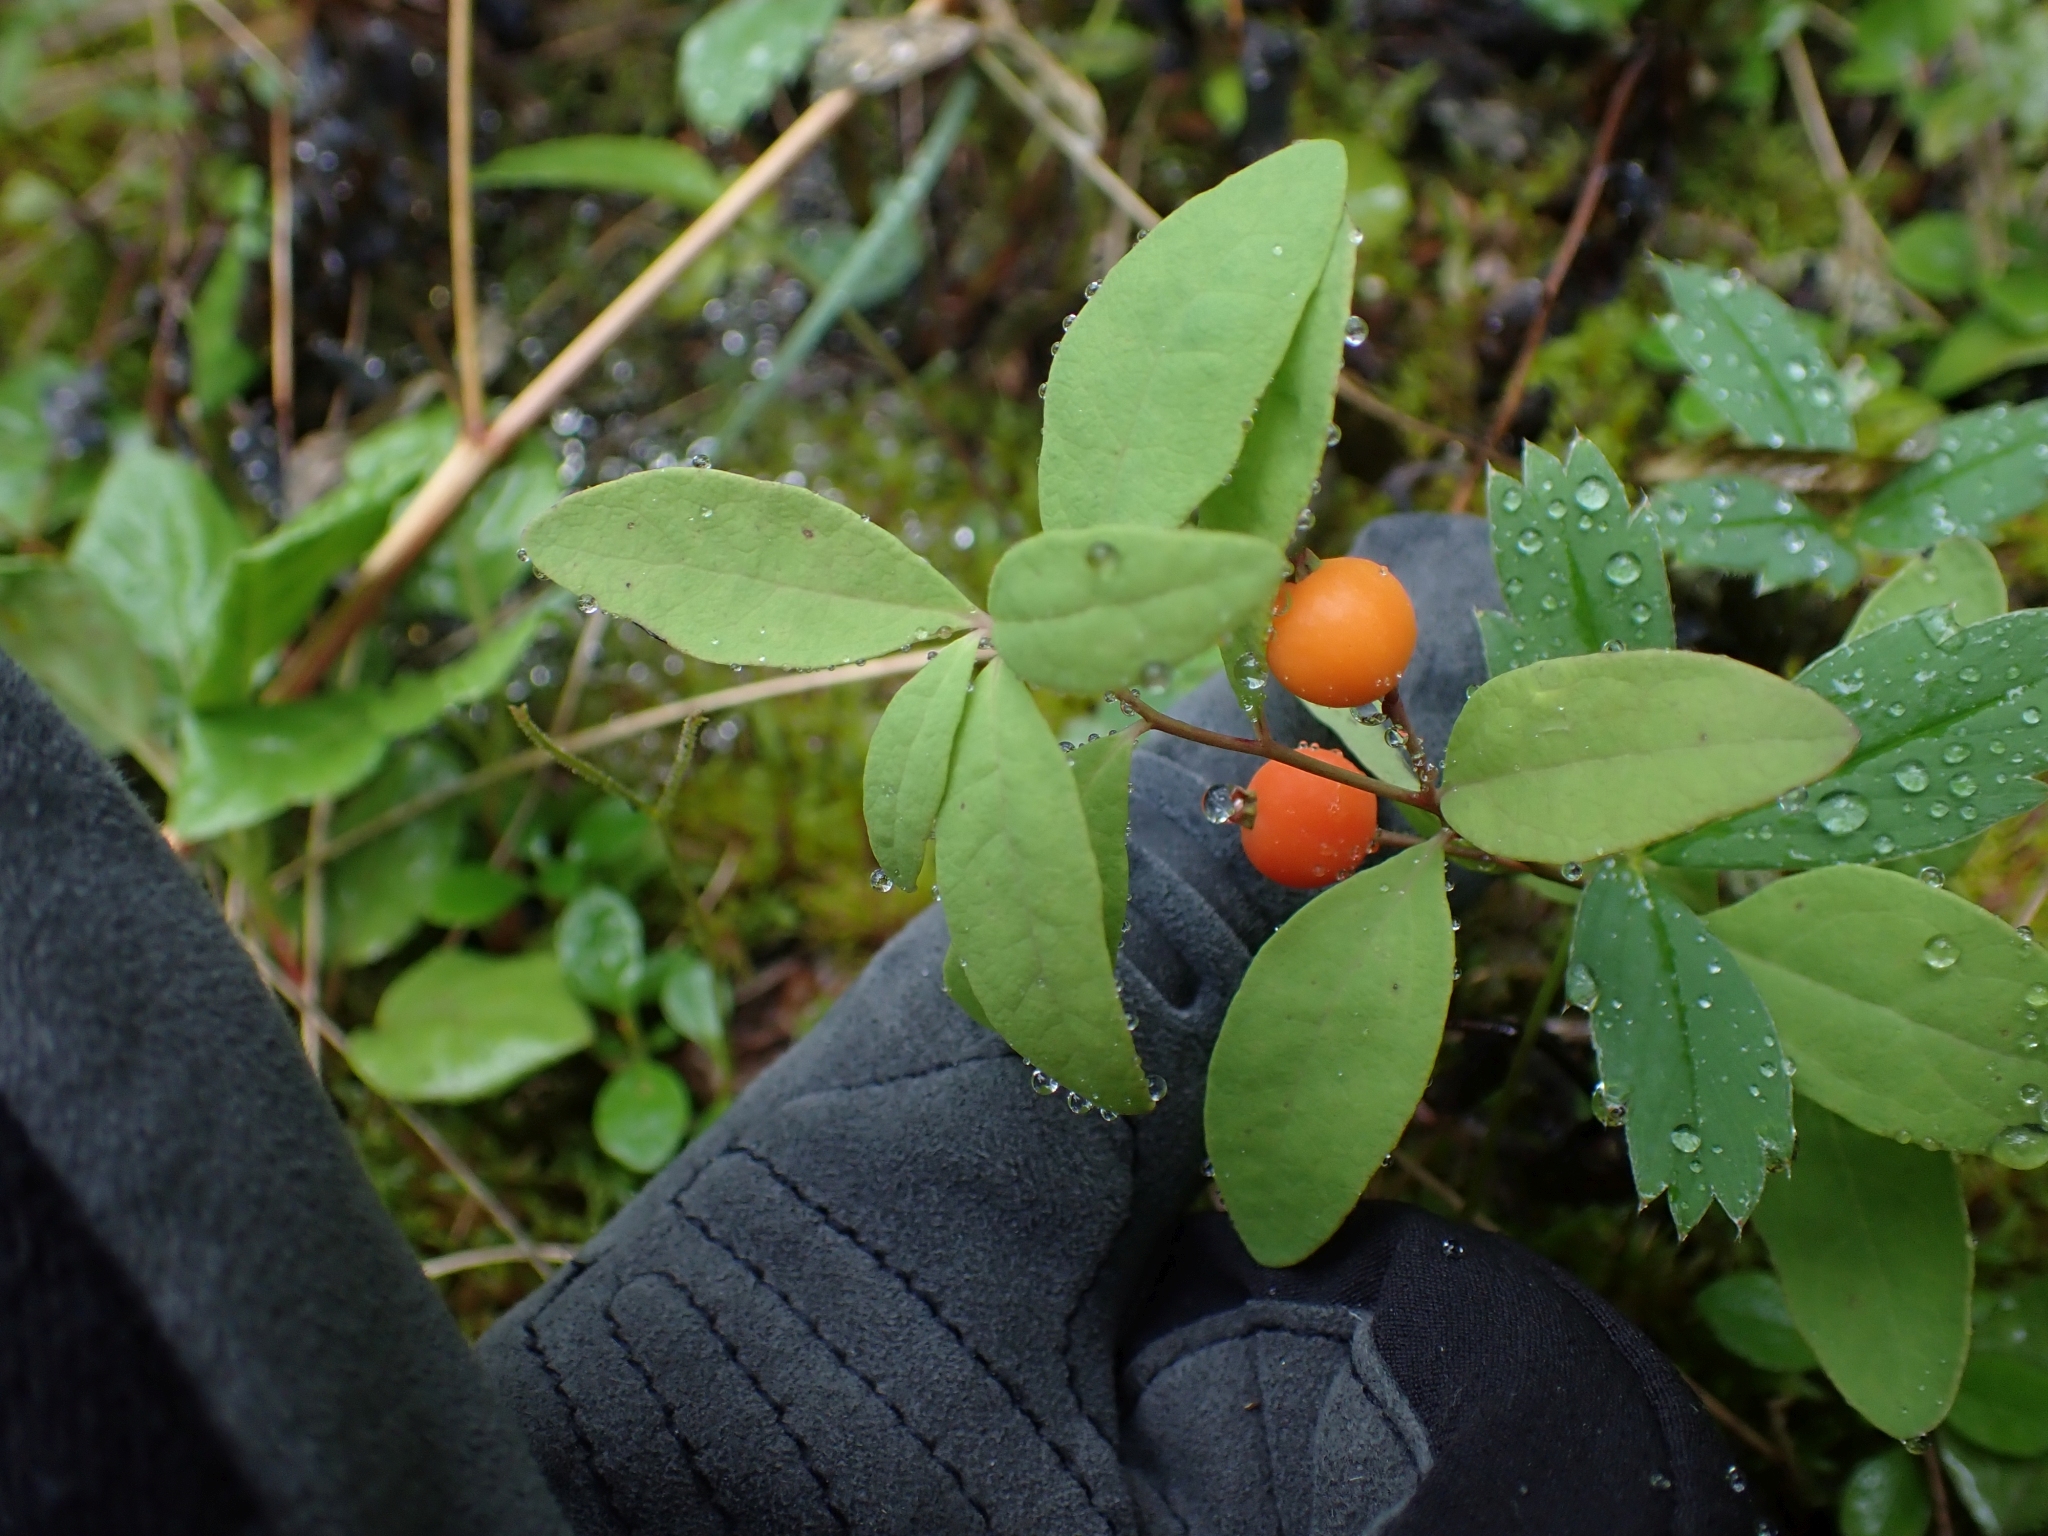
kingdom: Plantae
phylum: Tracheophyta
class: Magnoliopsida
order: Santalales
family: Comandraceae
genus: Geocaulon
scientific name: Geocaulon lividum
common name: Earthberry
